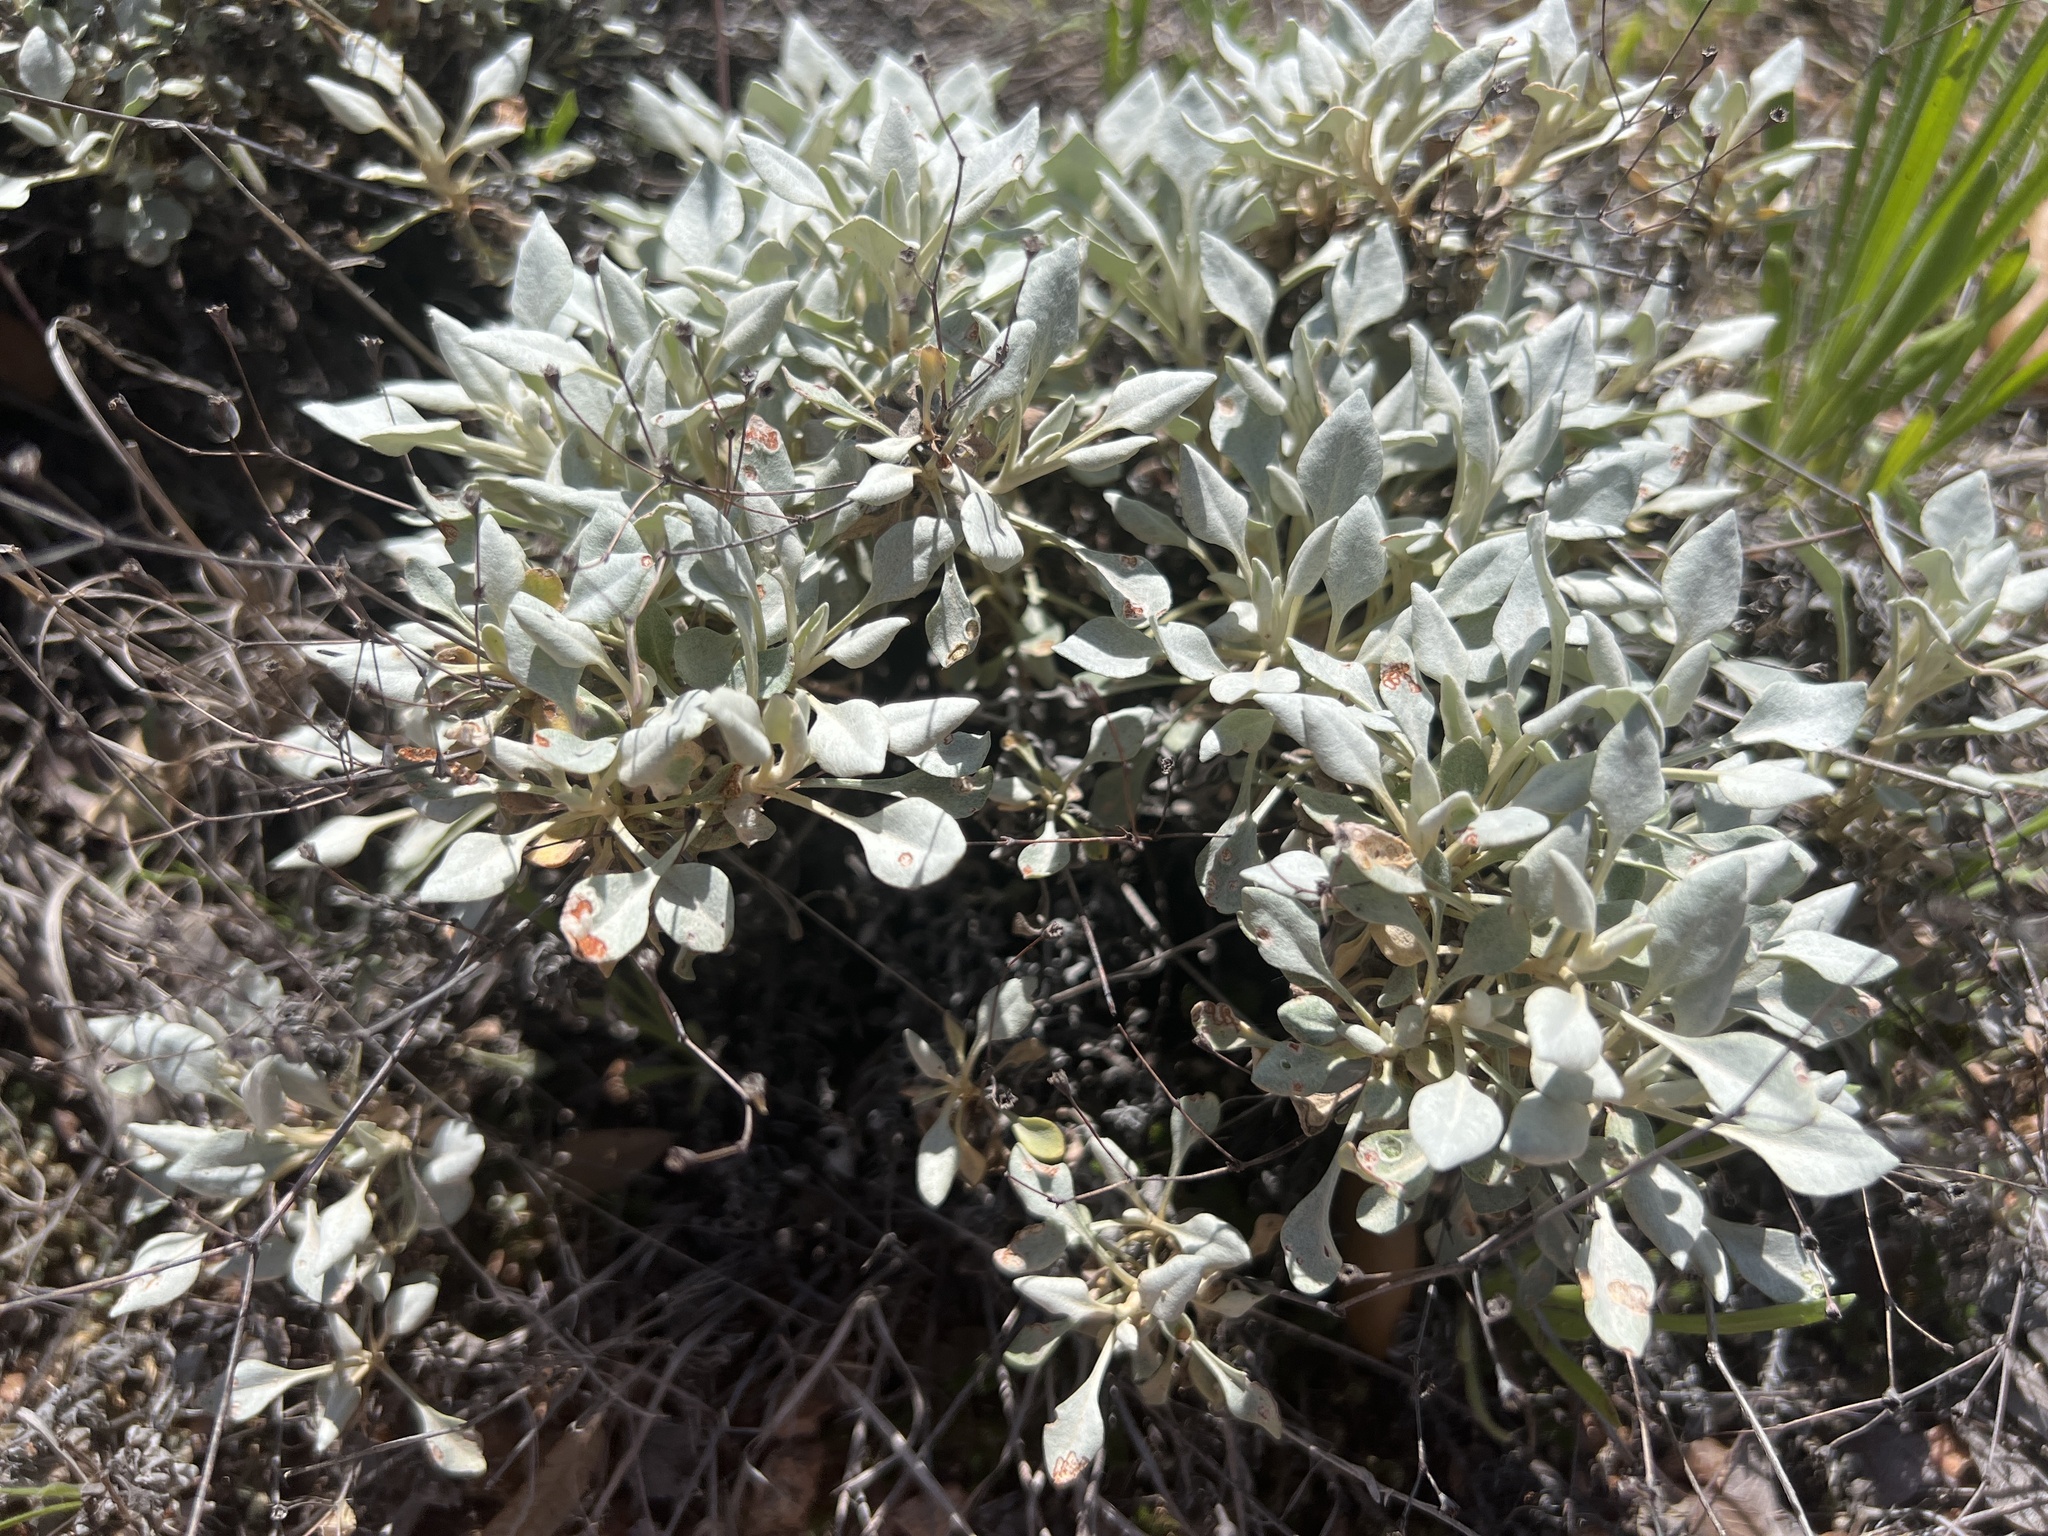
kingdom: Plantae
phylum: Tracheophyta
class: Magnoliopsida
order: Caryophyllales
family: Polygonaceae
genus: Eriogonum
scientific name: Eriogonum graniticum
